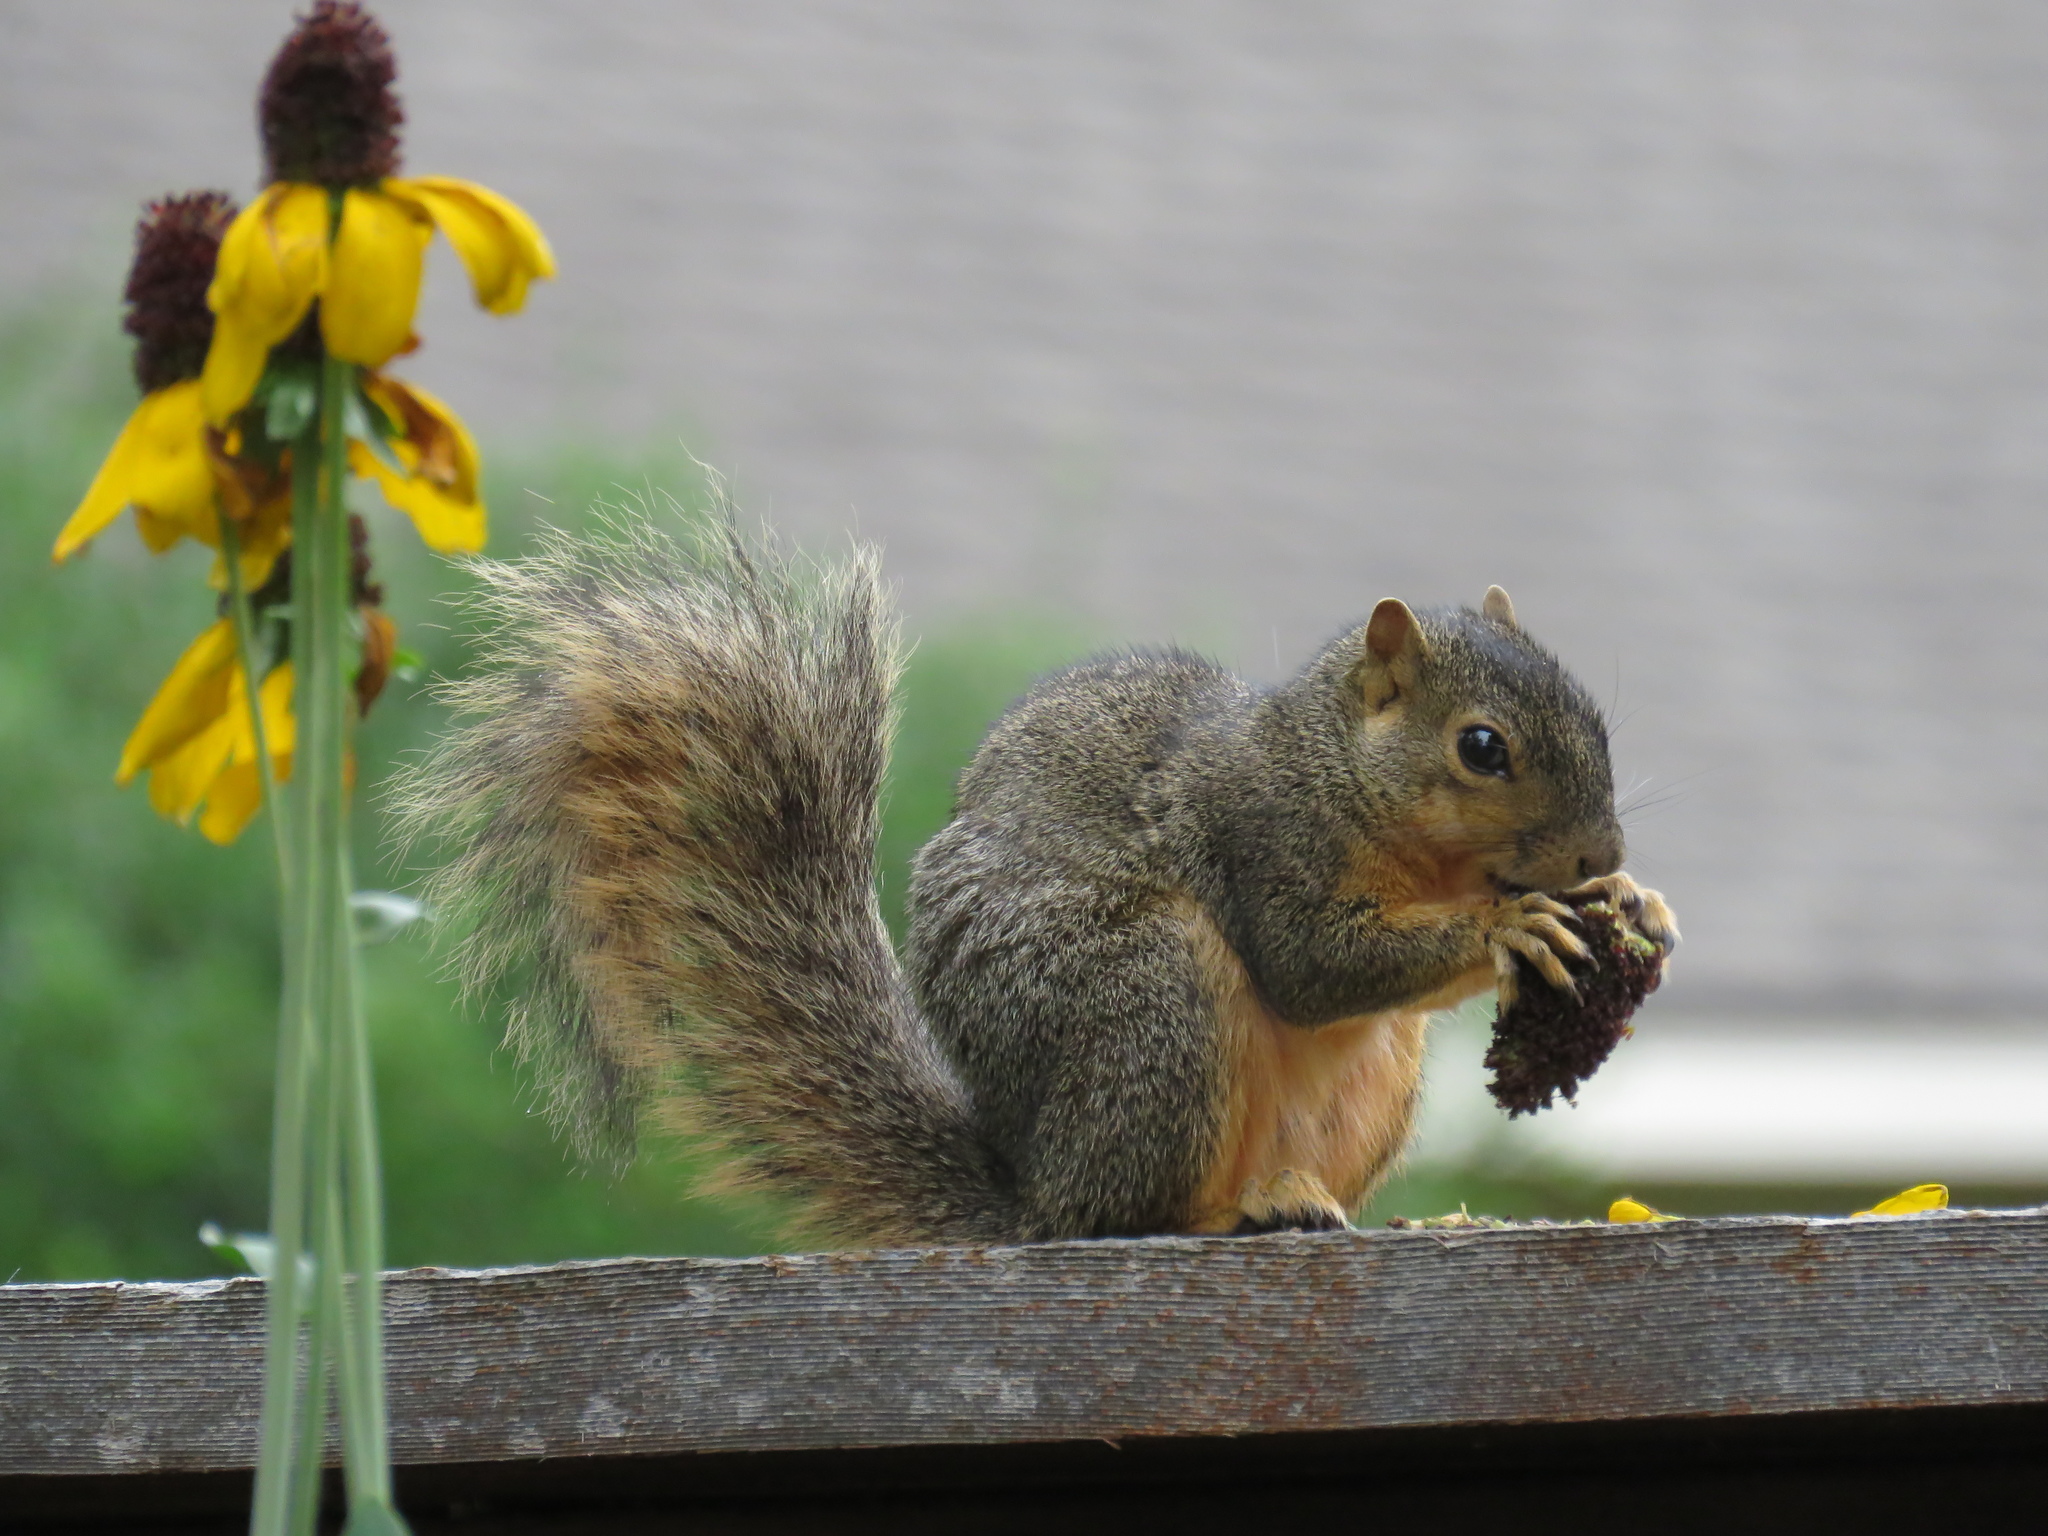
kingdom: Animalia
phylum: Chordata
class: Mammalia
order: Rodentia
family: Sciuridae
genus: Sciurus
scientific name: Sciurus niger
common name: Fox squirrel
